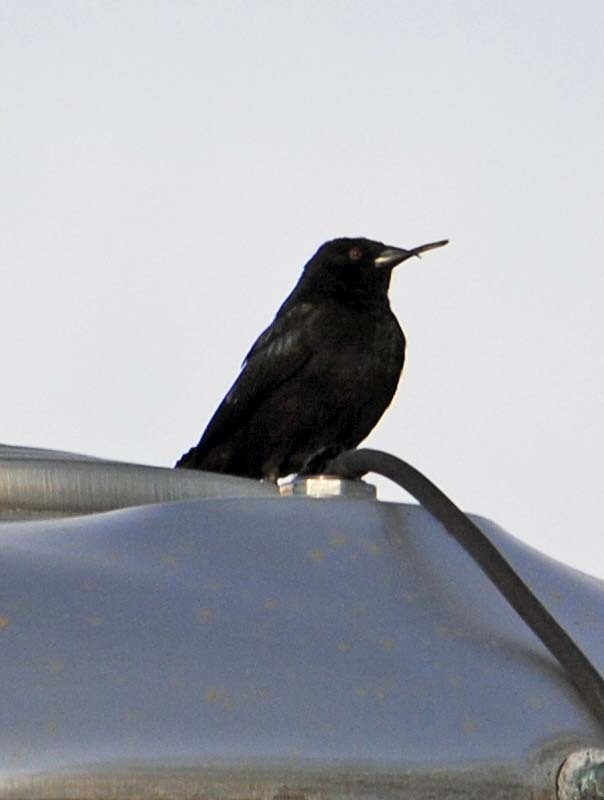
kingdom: Animalia
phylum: Chordata
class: Aves
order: Passeriformes
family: Icteridae
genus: Molothrus
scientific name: Molothrus aeneus
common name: Bronzed cowbird
